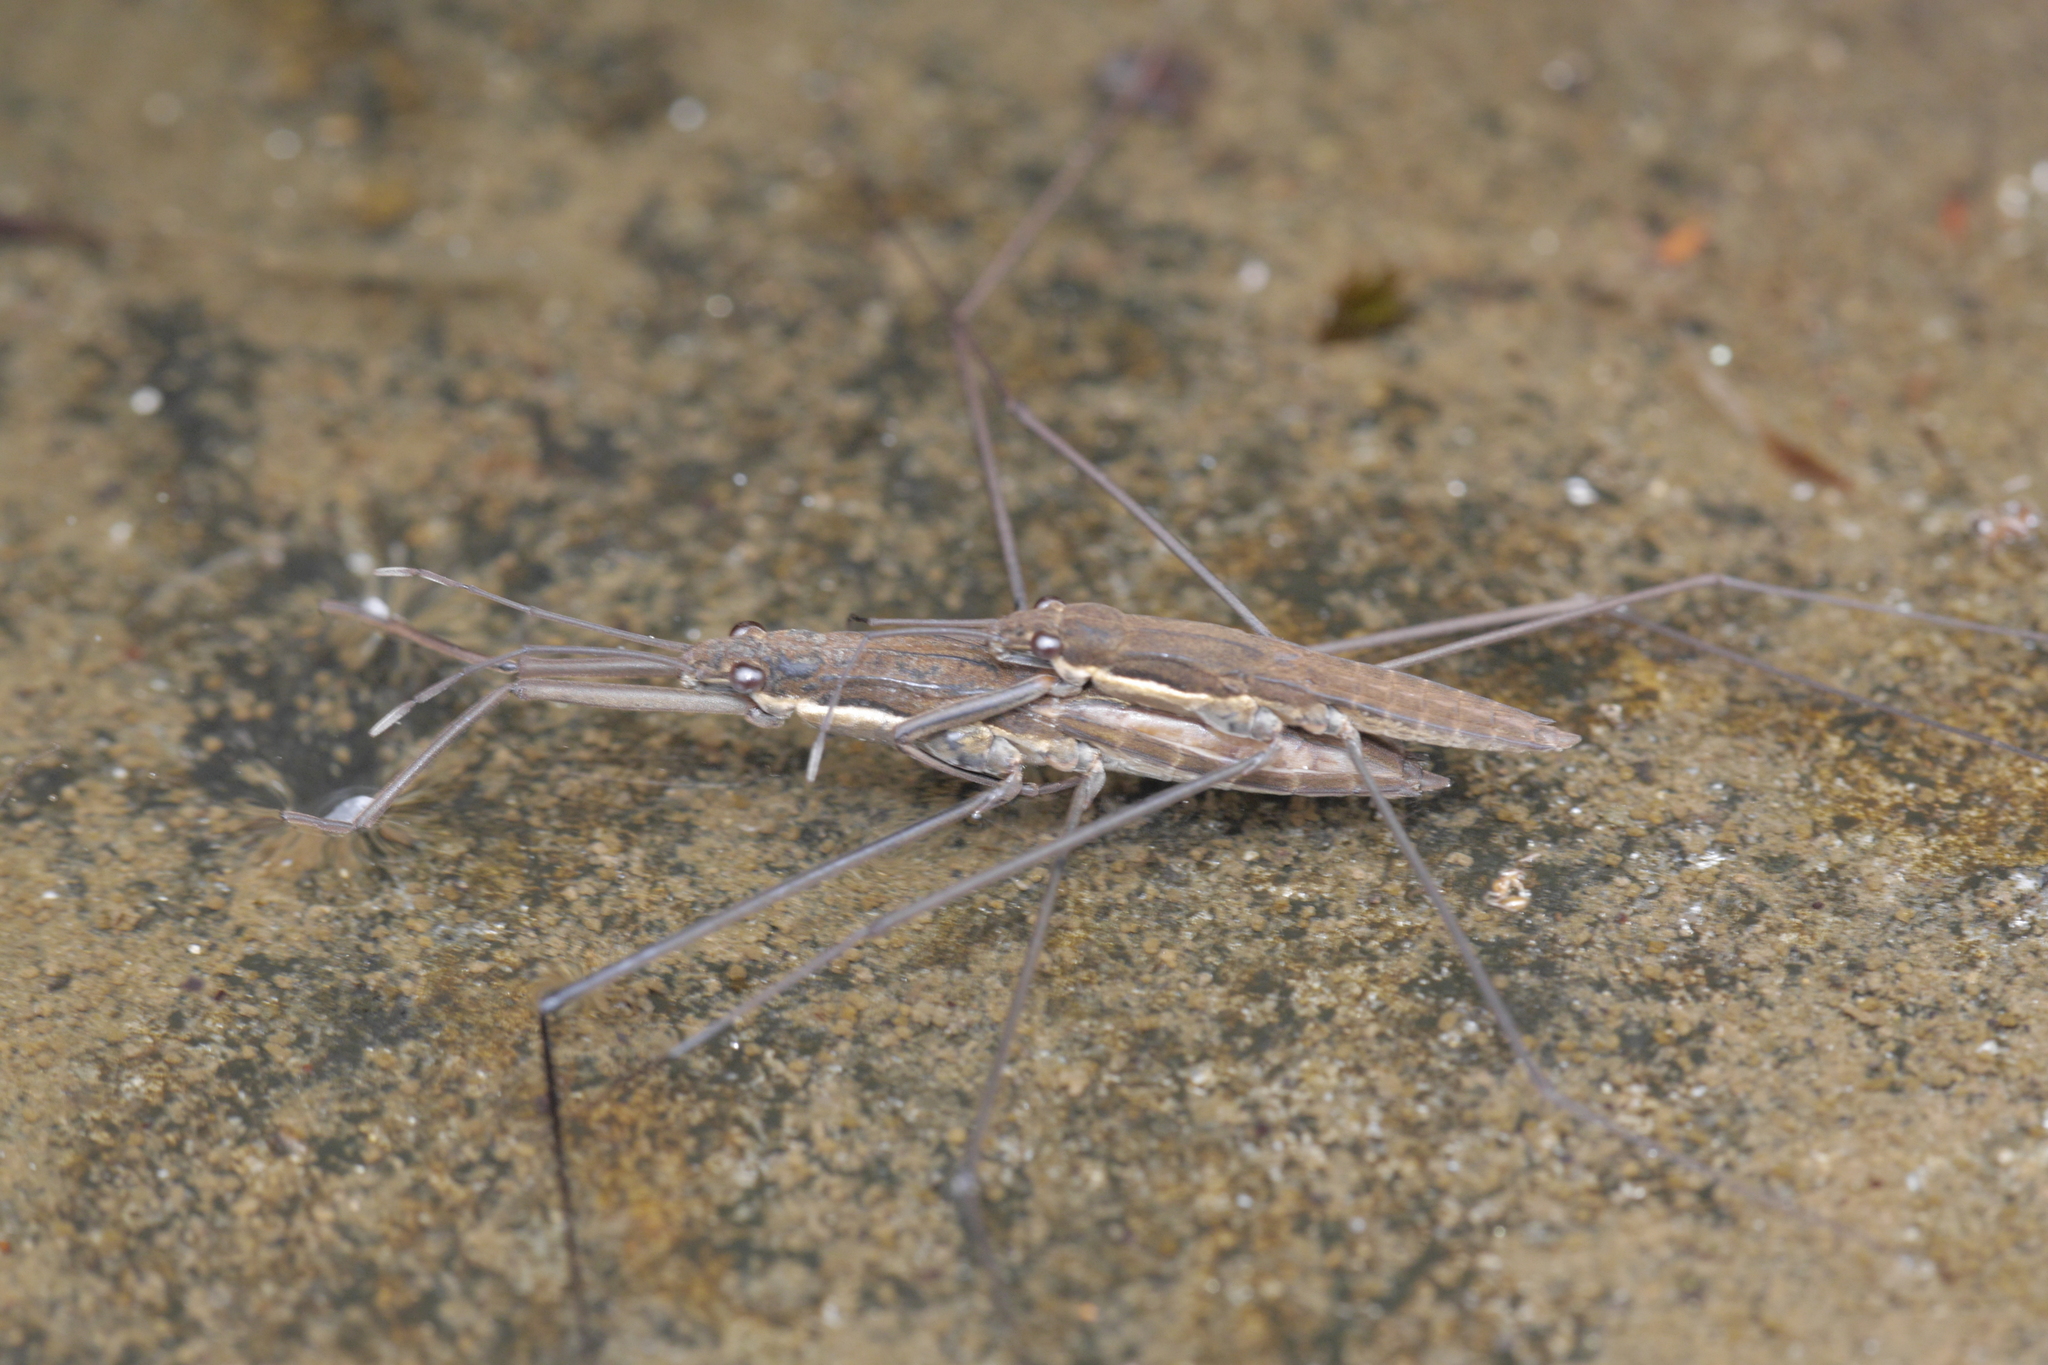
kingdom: Animalia
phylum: Arthropoda
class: Insecta
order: Hemiptera
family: Gerridae
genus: Aquarius
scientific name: Aquarius najas
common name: River skater
